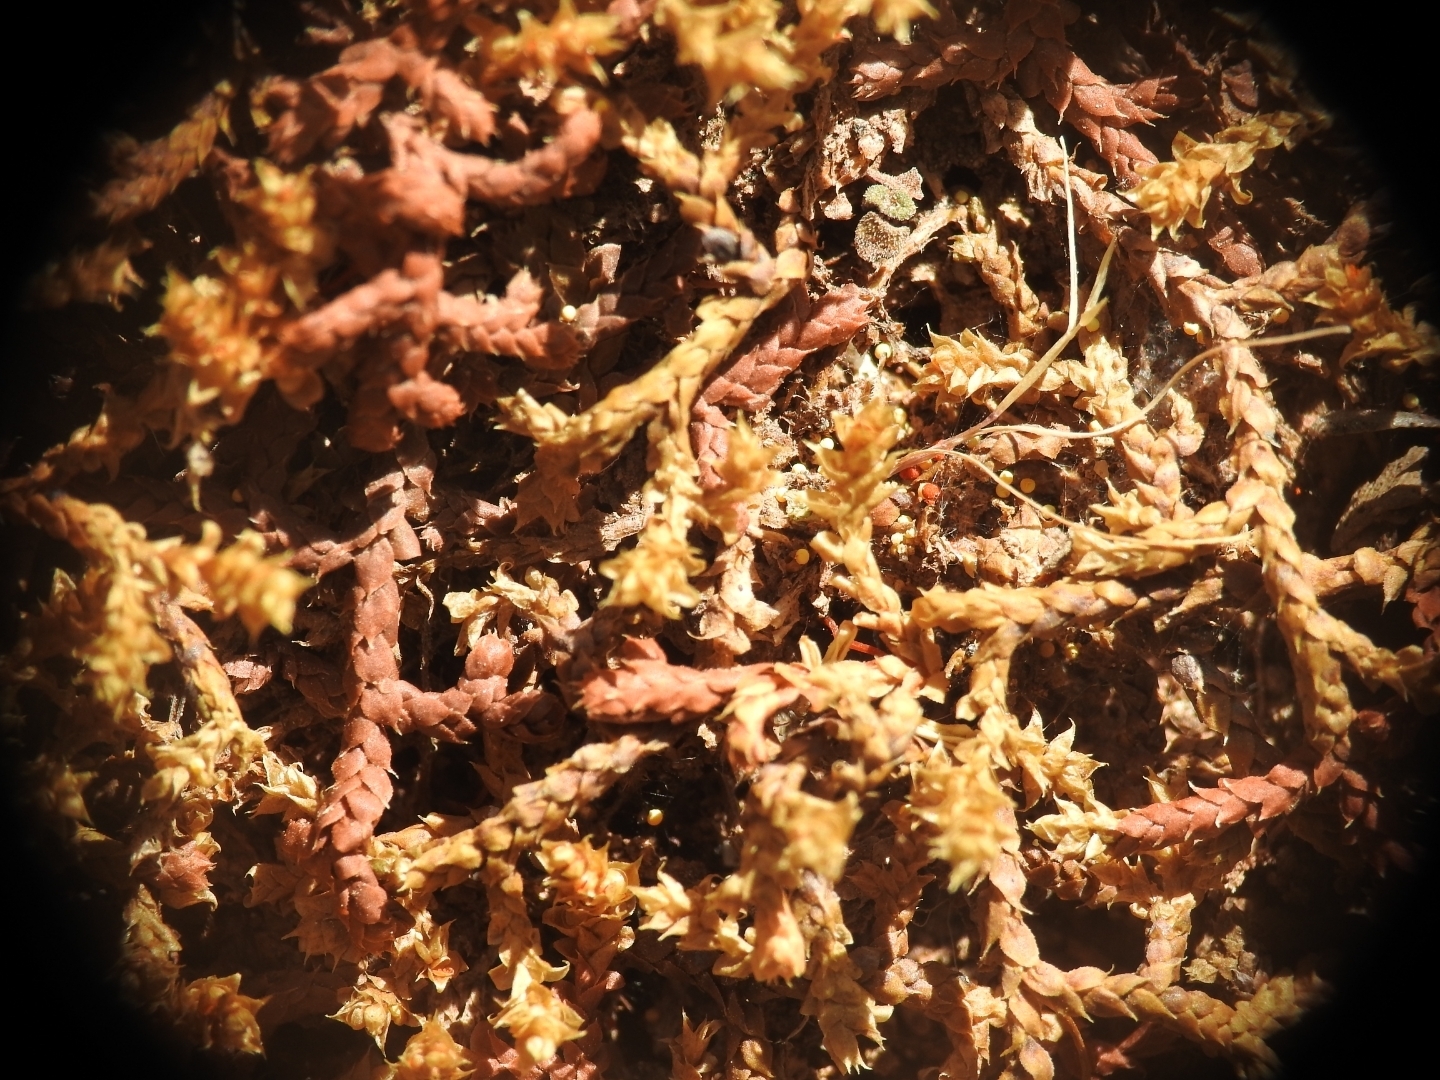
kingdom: Plantae
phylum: Tracheophyta
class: Lycopodiopsida
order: Selaginellales
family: Selaginellaceae
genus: Selaginella
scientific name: Selaginella denticulata
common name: Toothed-leaved clubmoss
